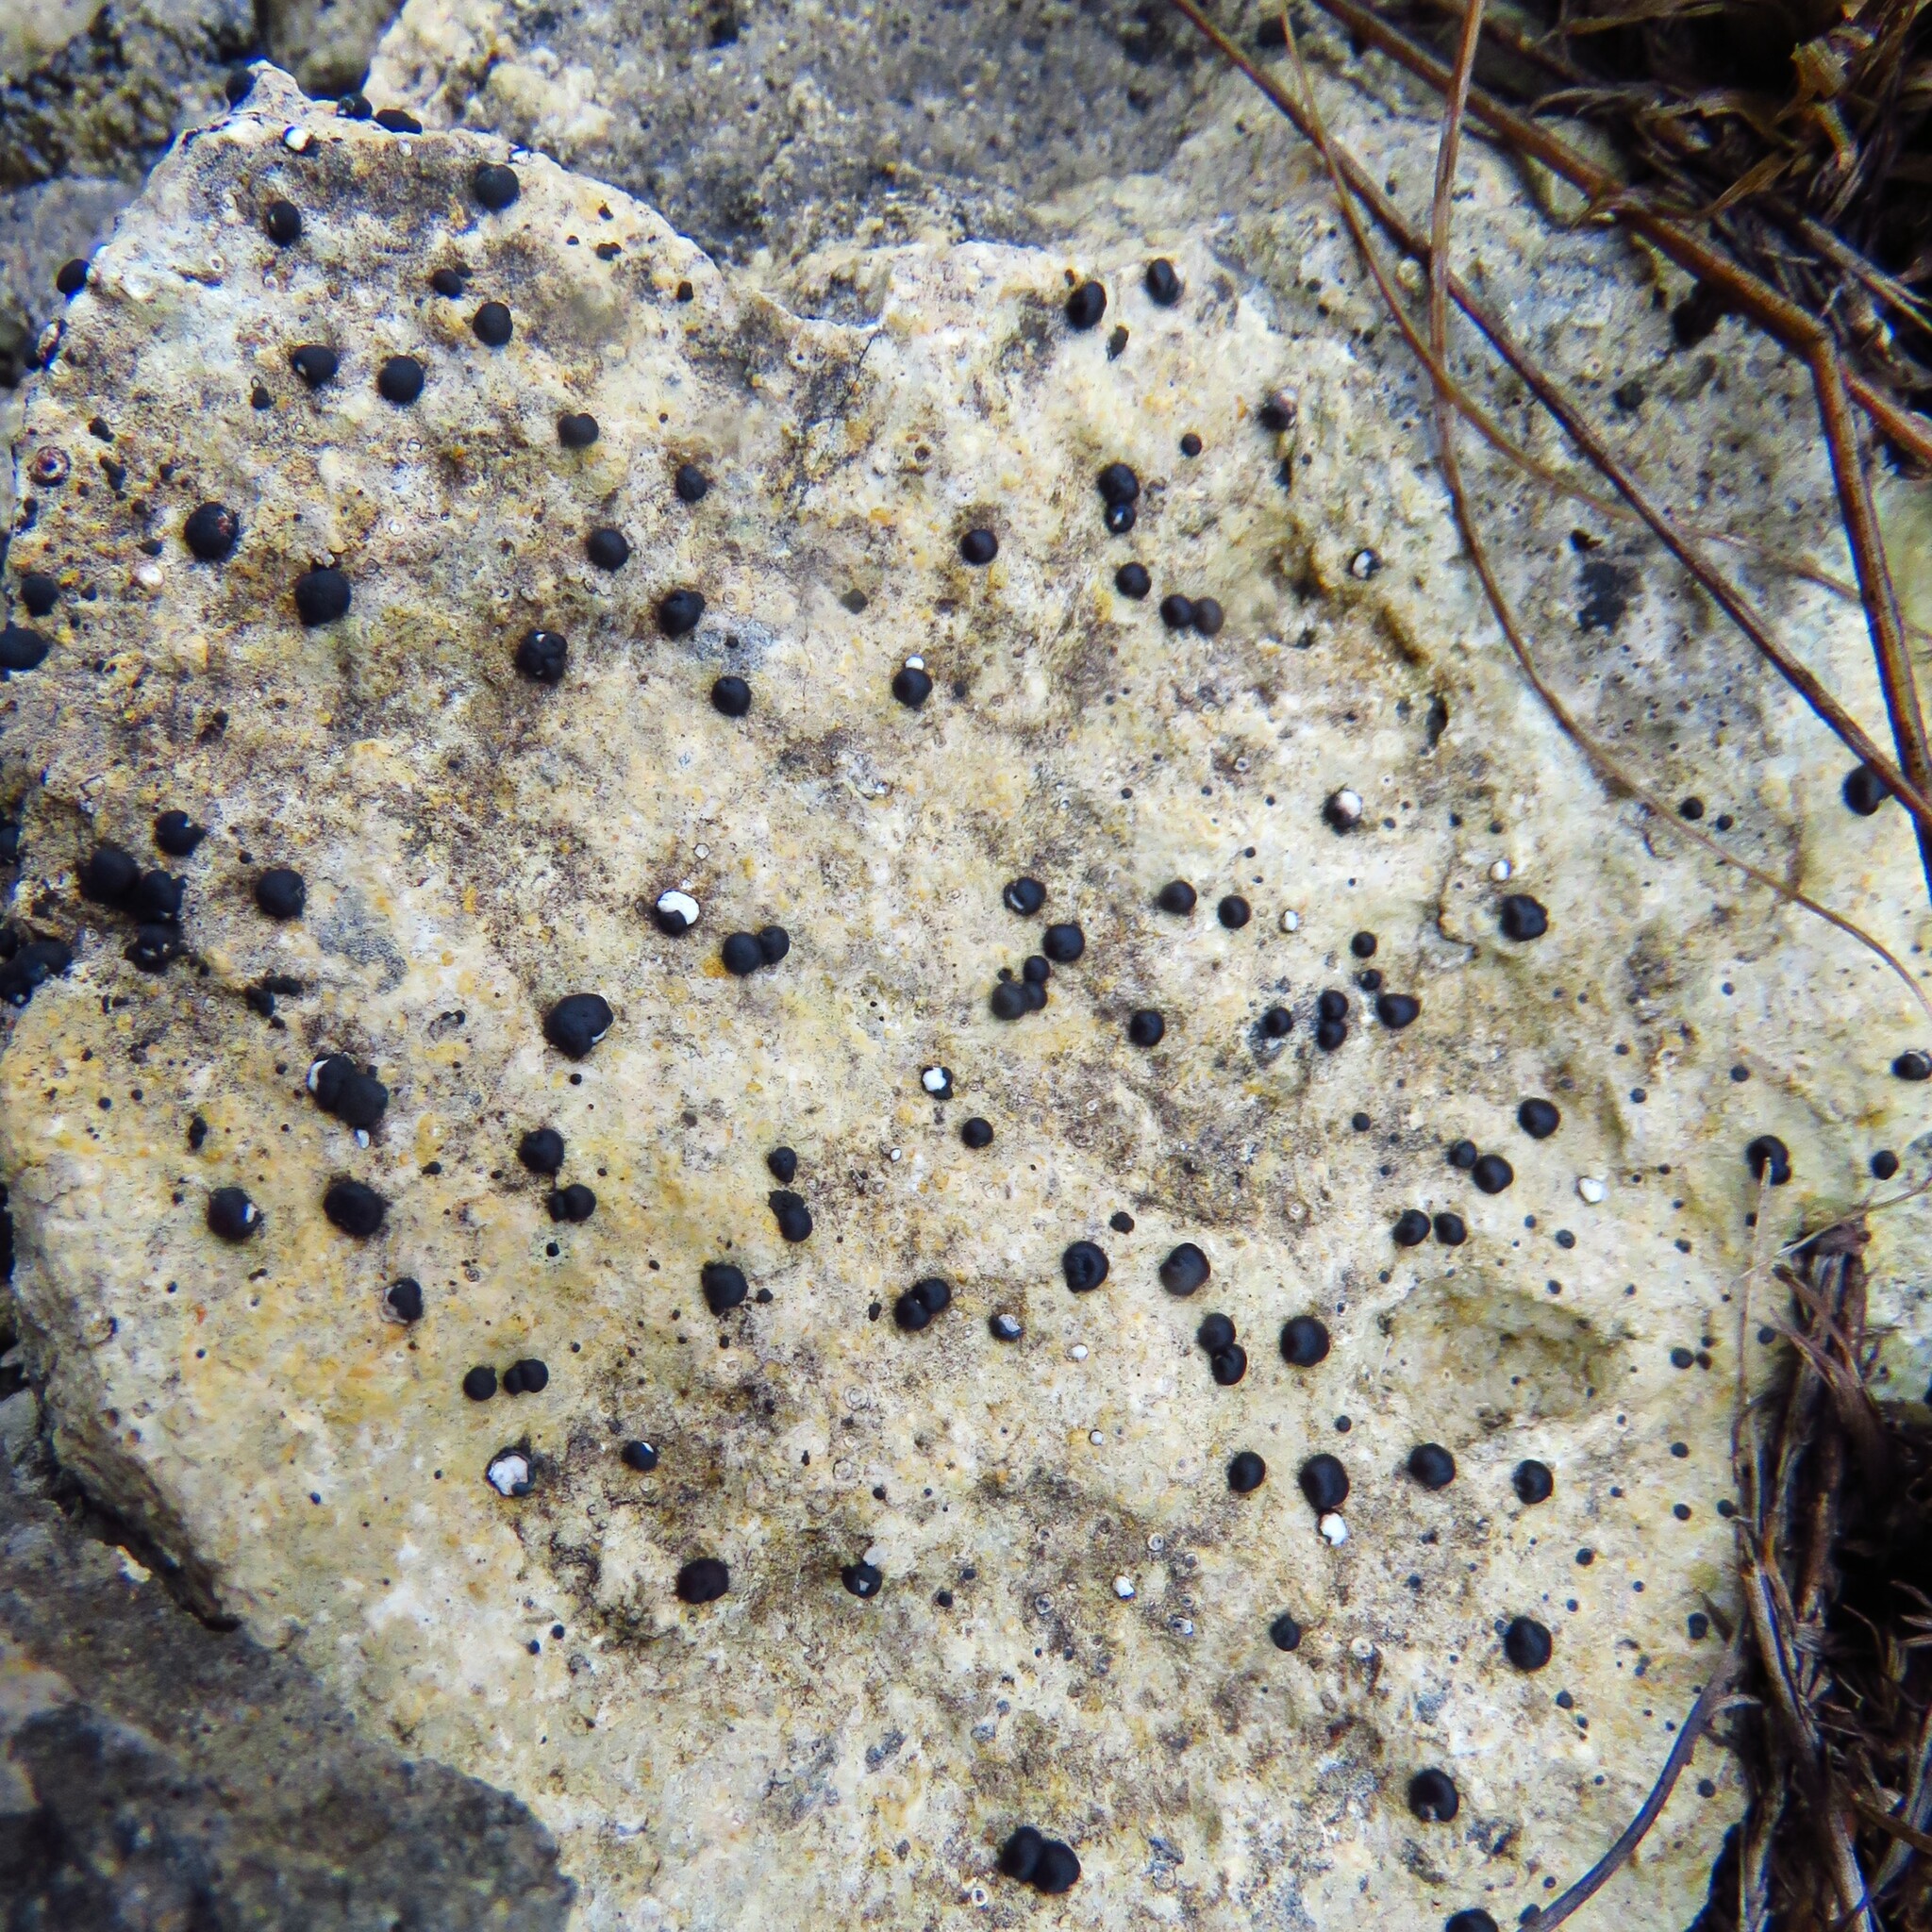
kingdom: Fungi
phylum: Ascomycota
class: Lecanoromycetes
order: Caliciales
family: Caliciaceae
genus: Buellia
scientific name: Buellia erubescens
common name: Common button lichen
